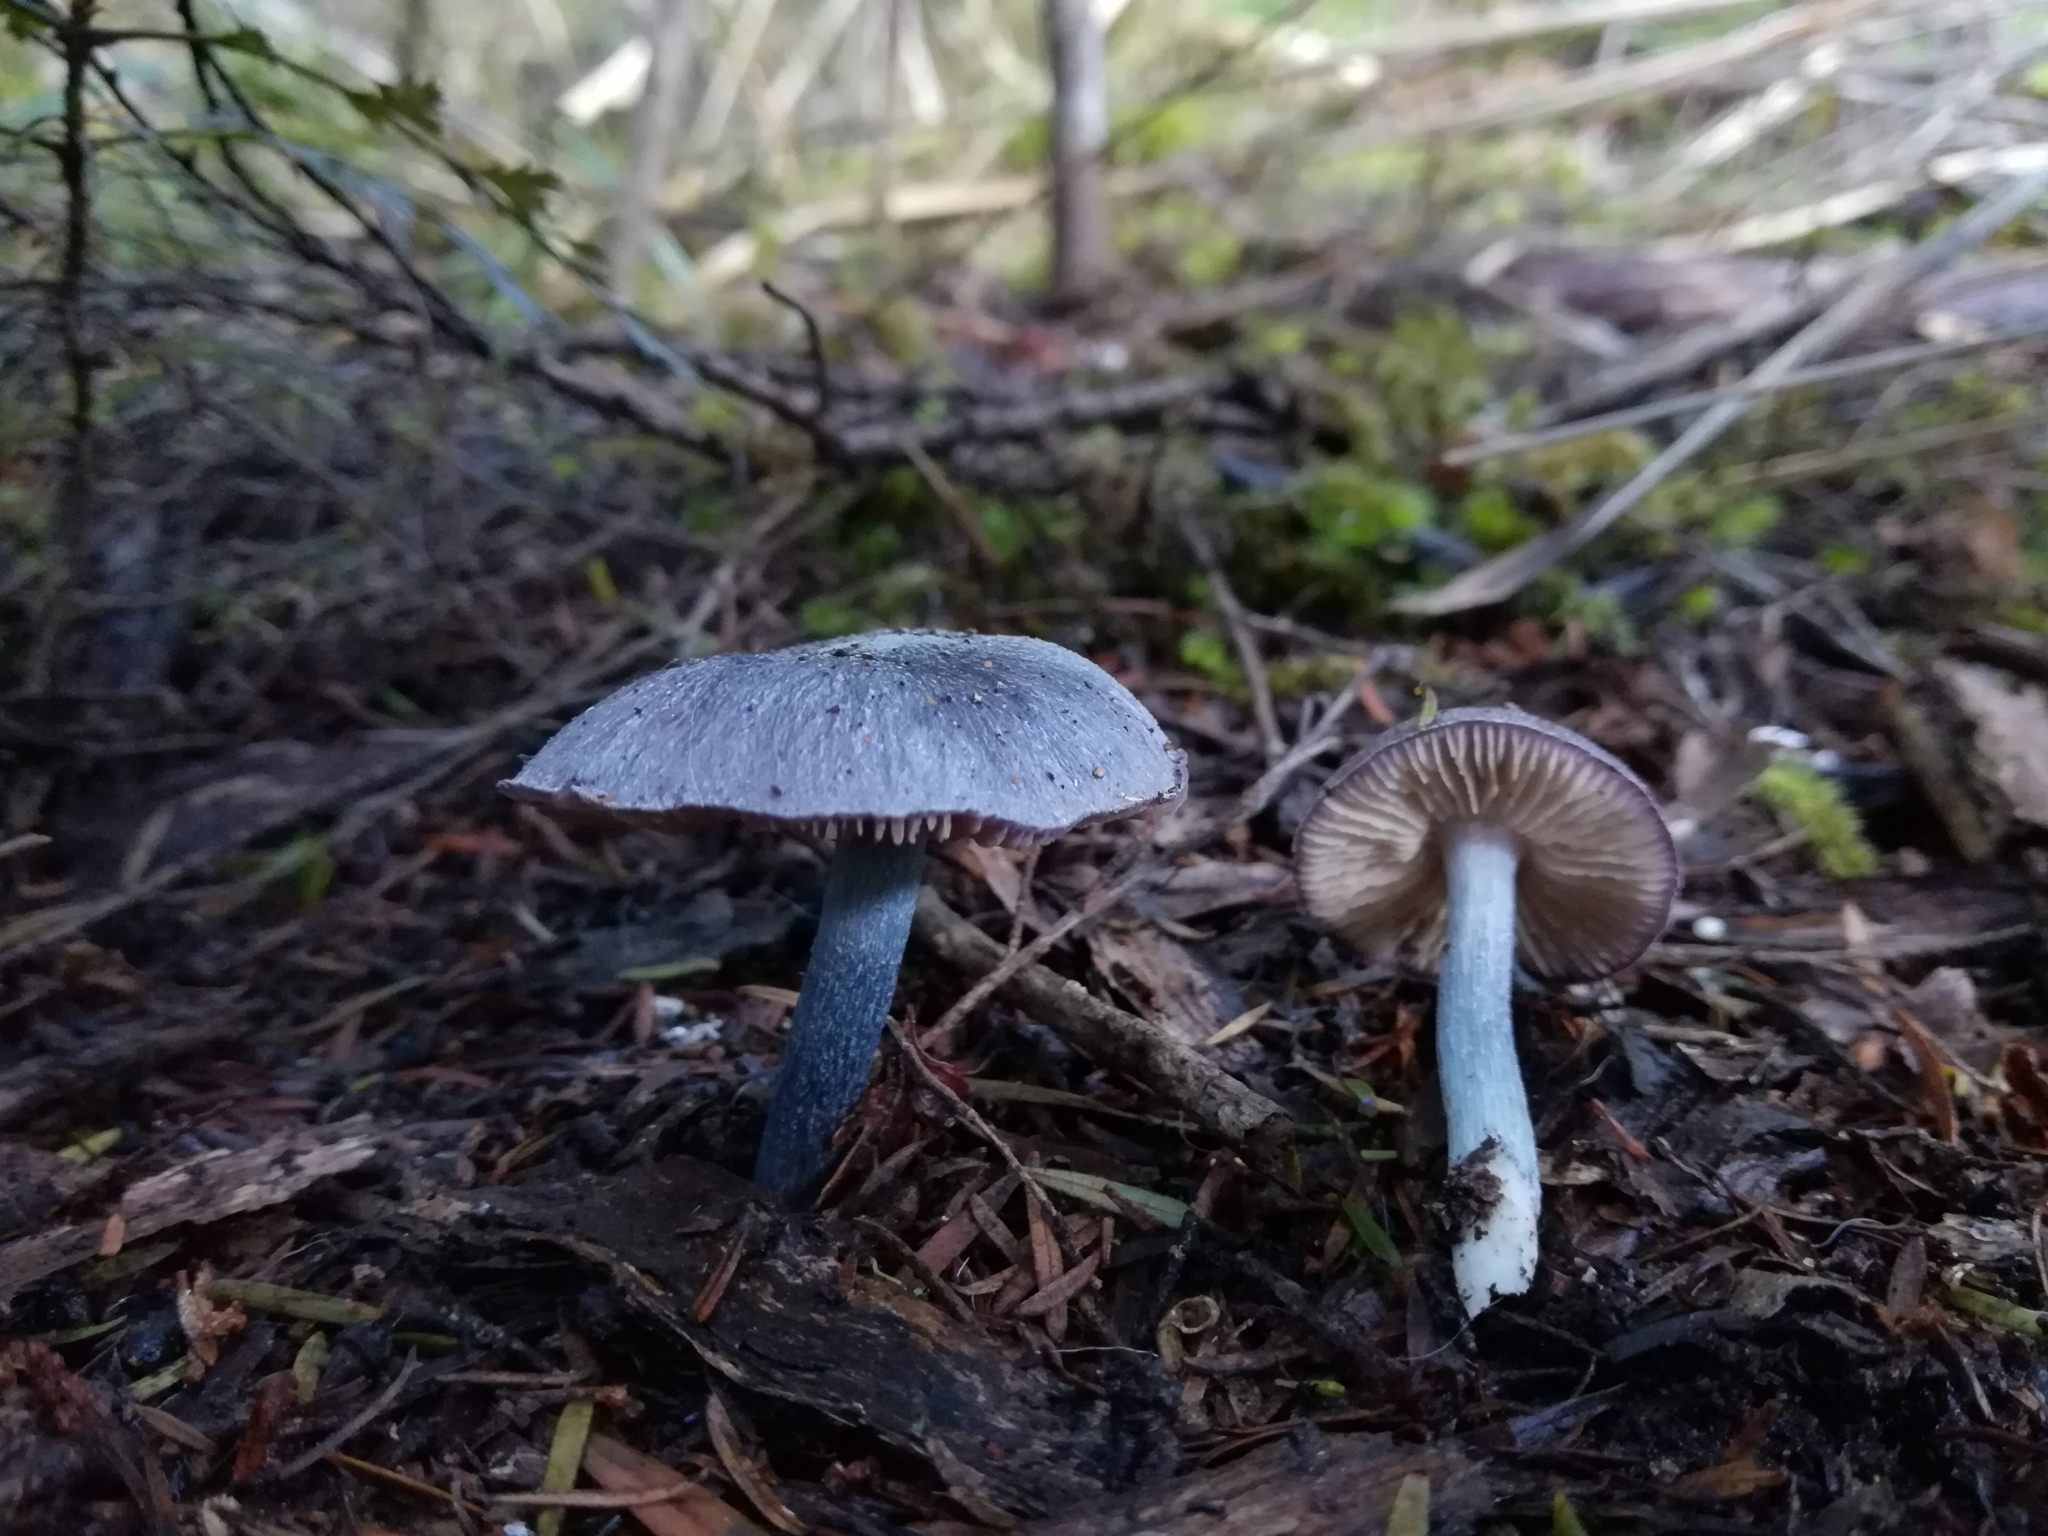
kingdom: Fungi
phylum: Basidiomycota
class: Agaricomycetes
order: Agaricales
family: Entolomataceae
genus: Entocybe
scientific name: Entocybe haastii
